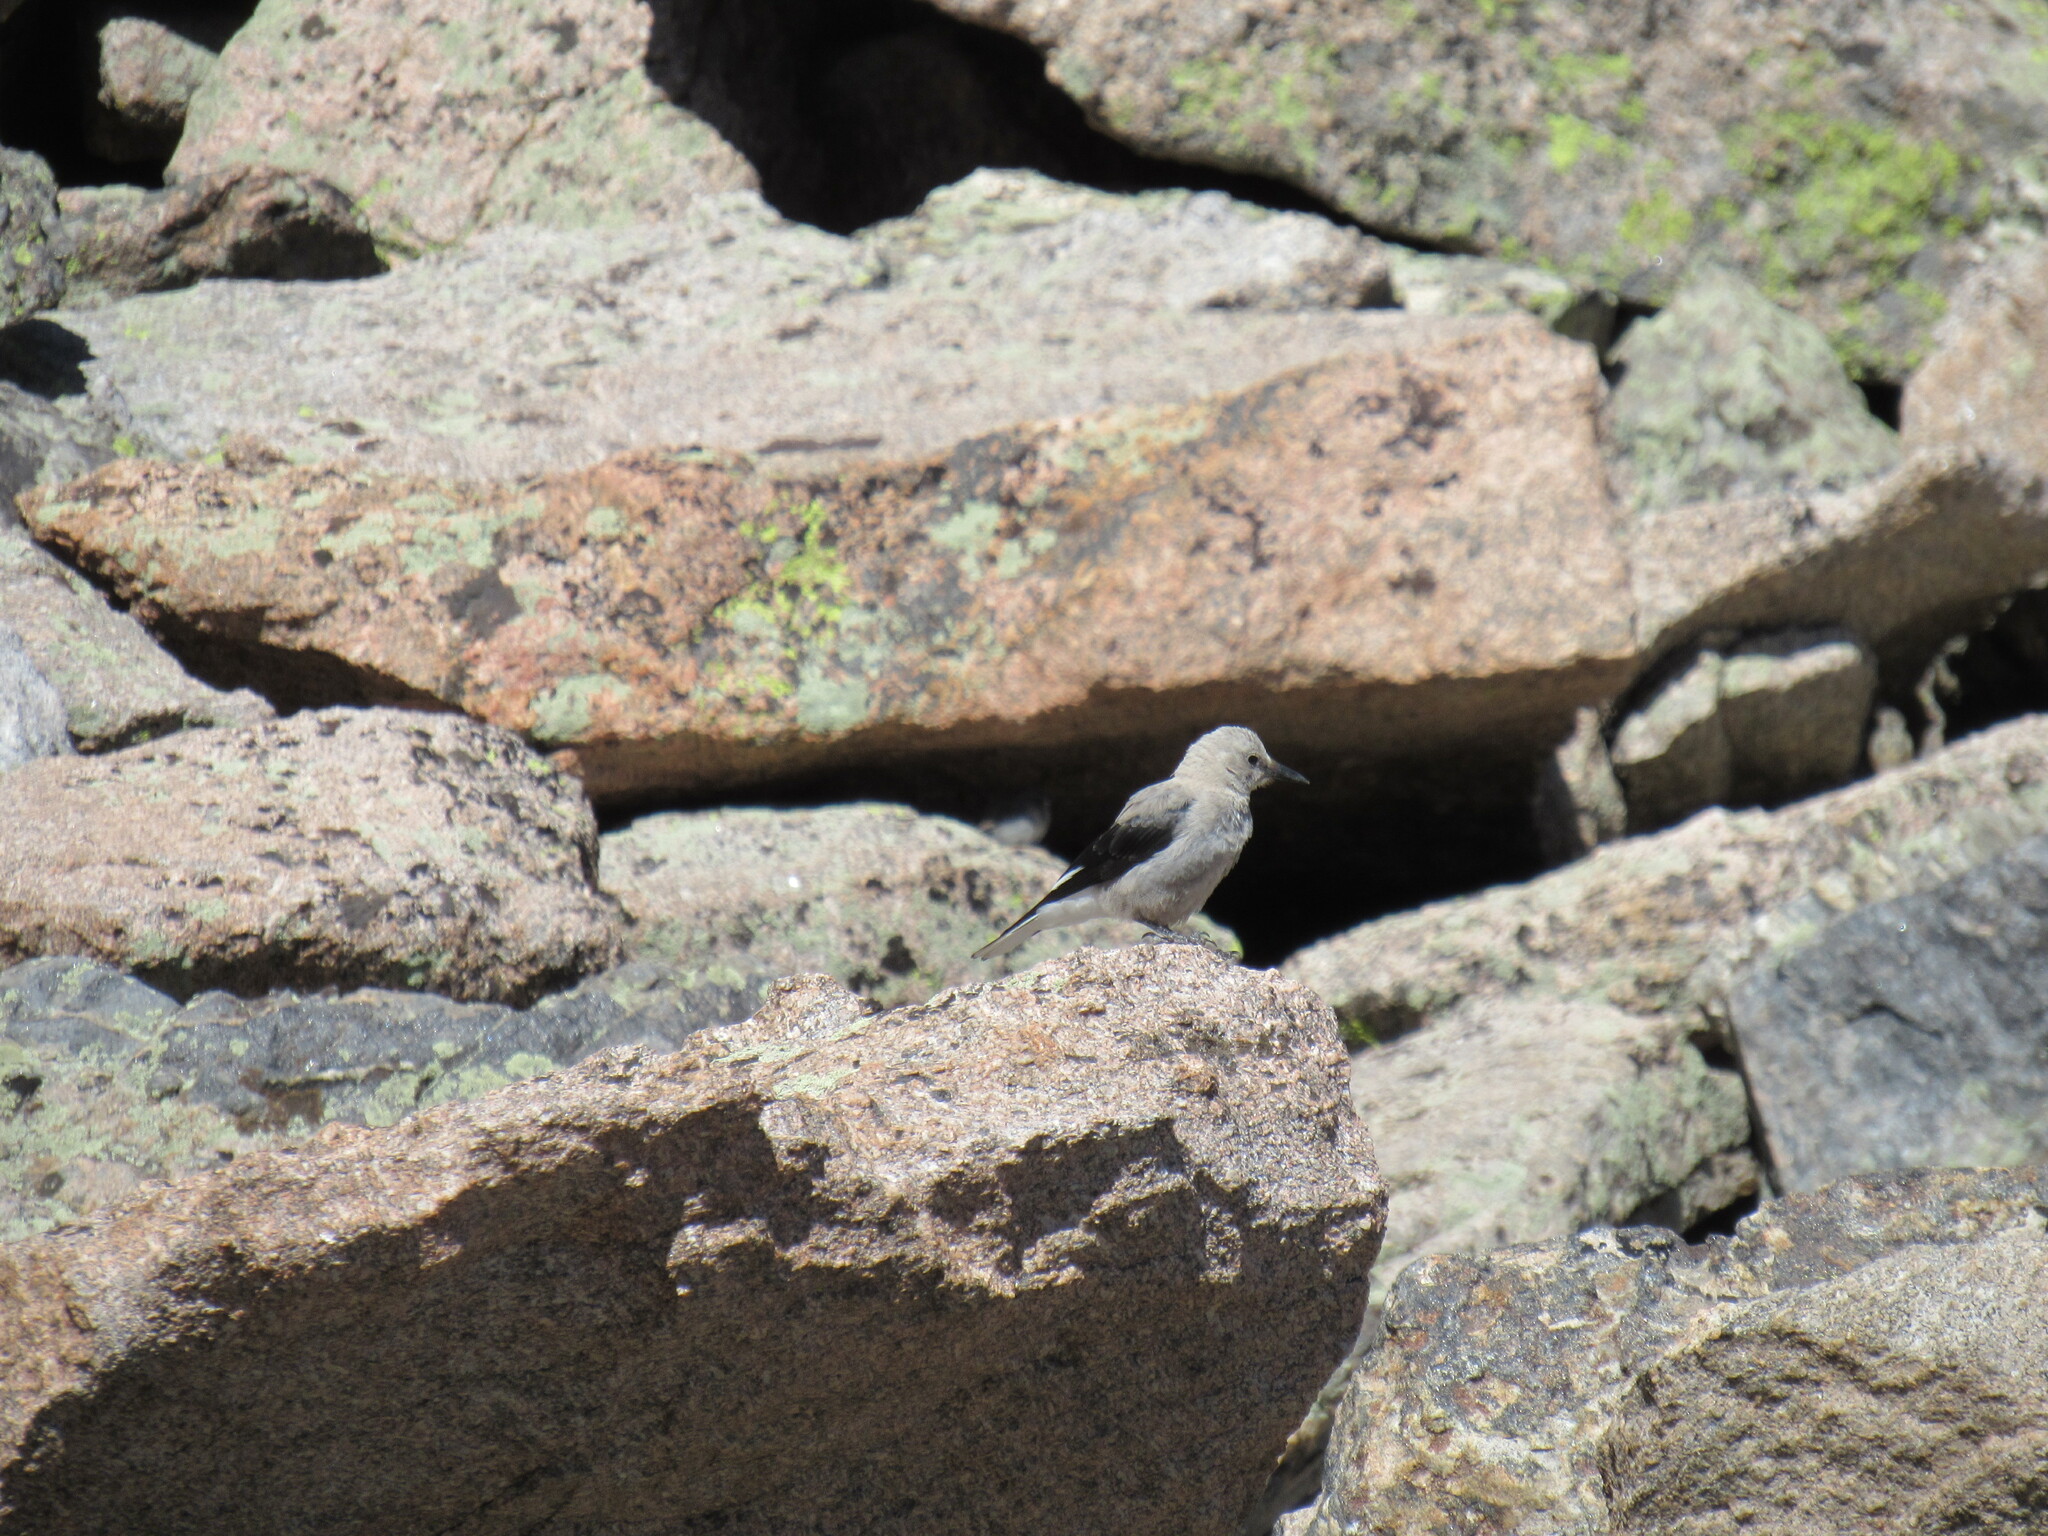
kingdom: Animalia
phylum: Chordata
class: Aves
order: Passeriformes
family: Corvidae
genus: Nucifraga
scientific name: Nucifraga columbiana
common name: Clark's nutcracker
